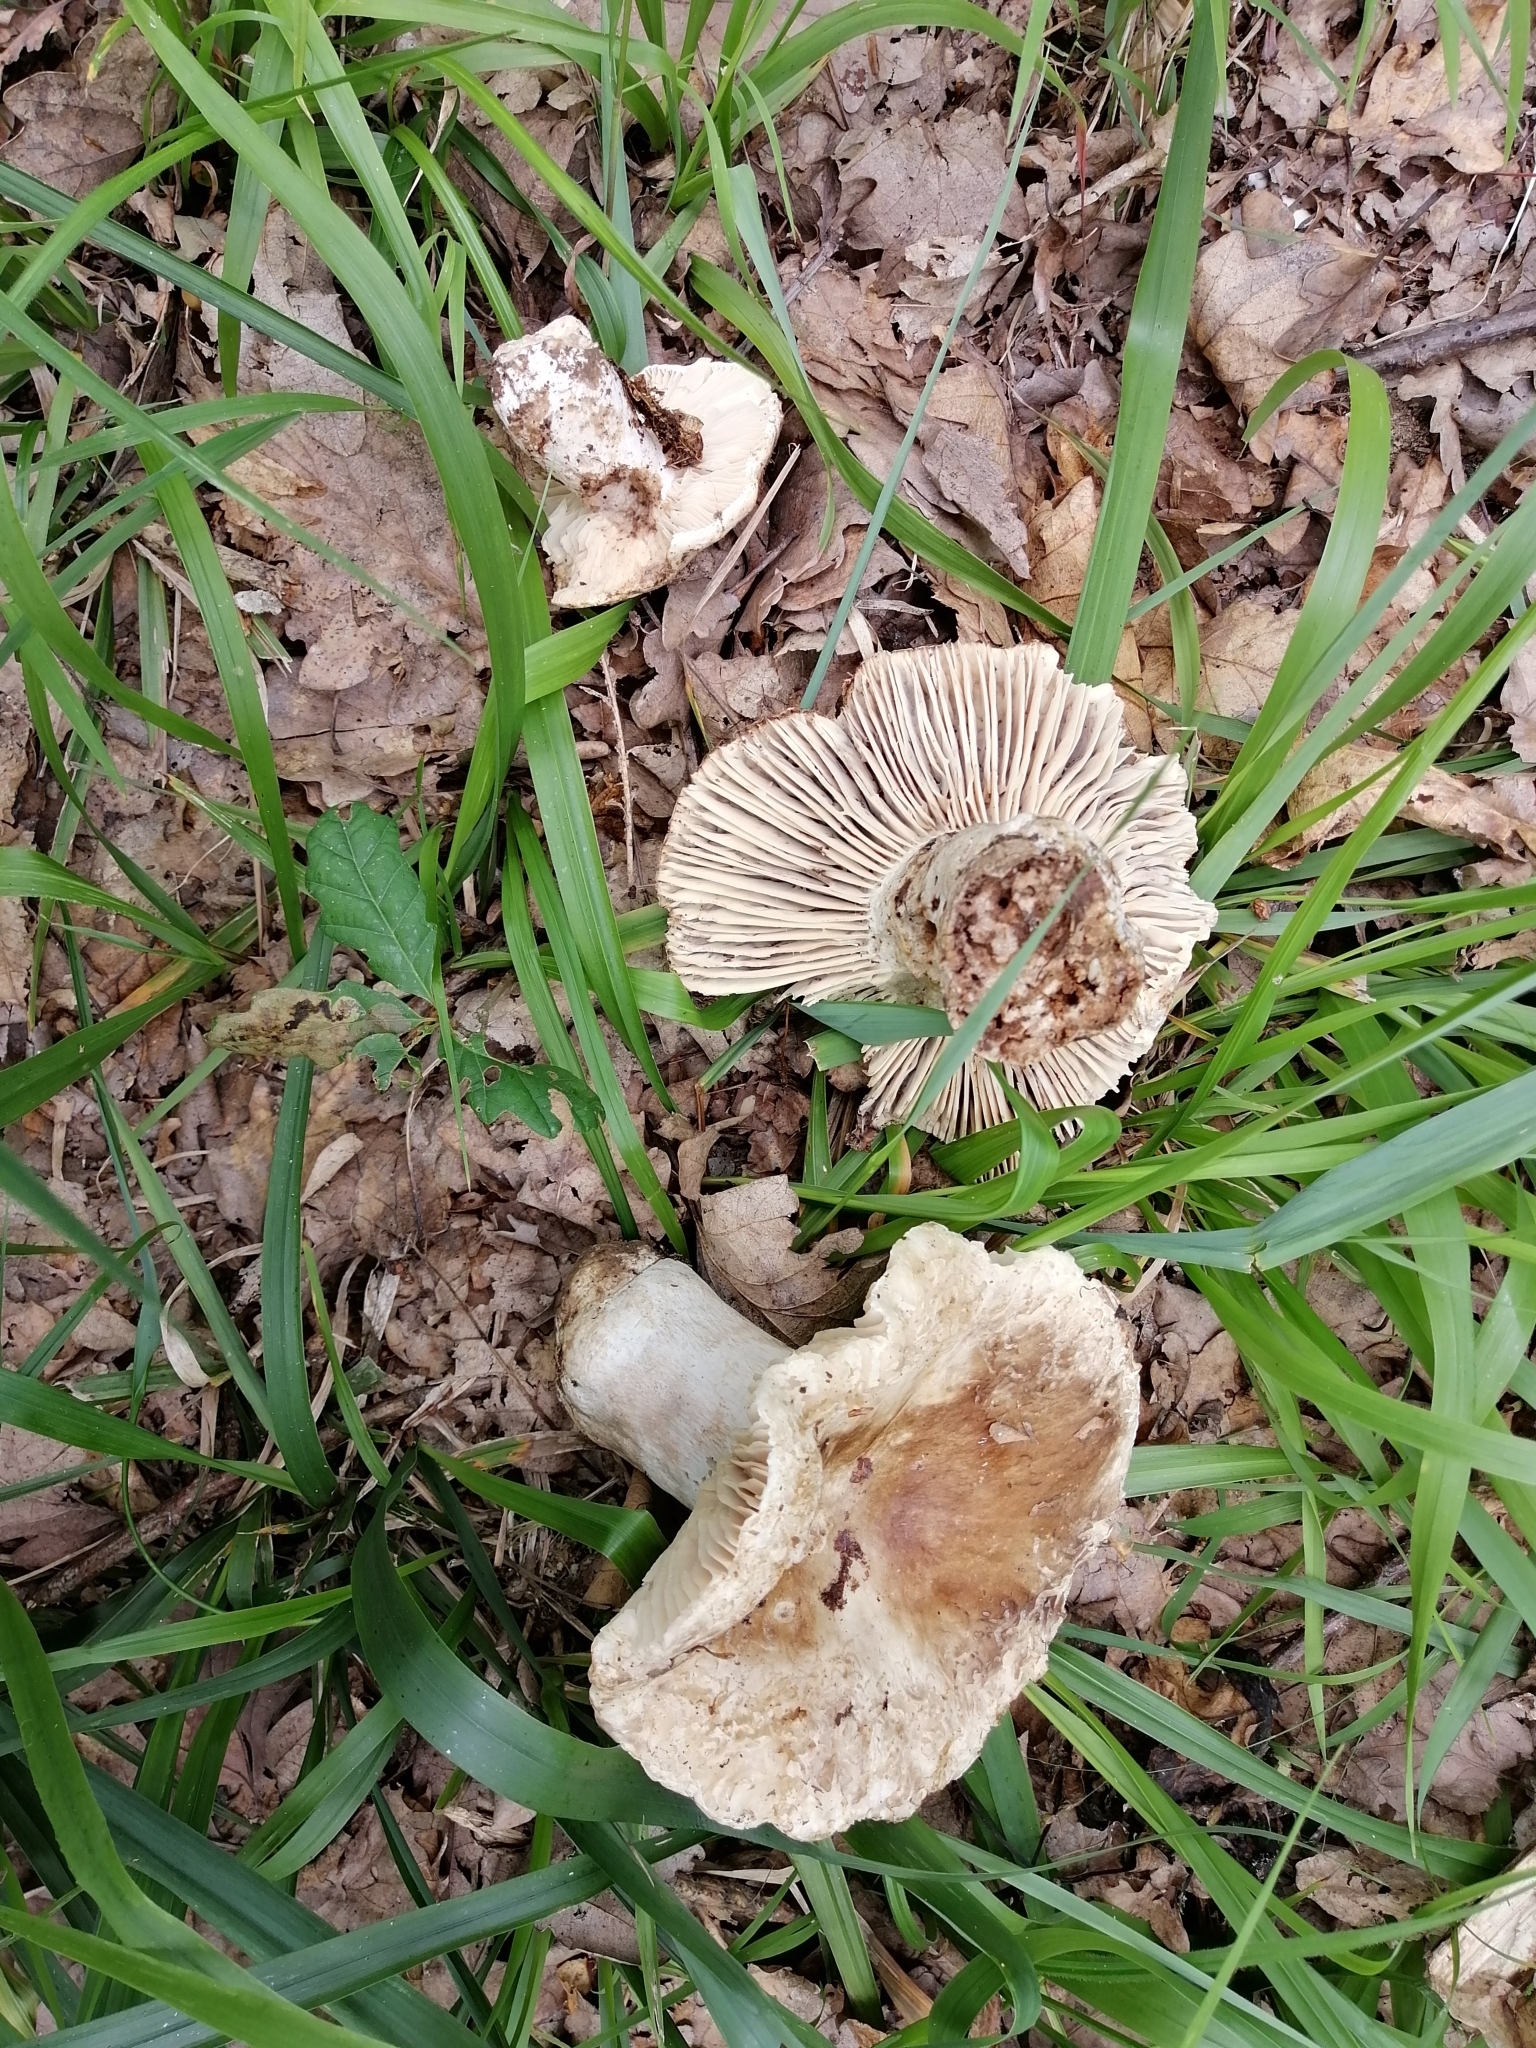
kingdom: Fungi
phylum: Basidiomycota
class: Agaricomycetes
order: Russulales
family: Russulaceae
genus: Russula
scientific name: Russula adusta
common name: Winecork brittlegill
